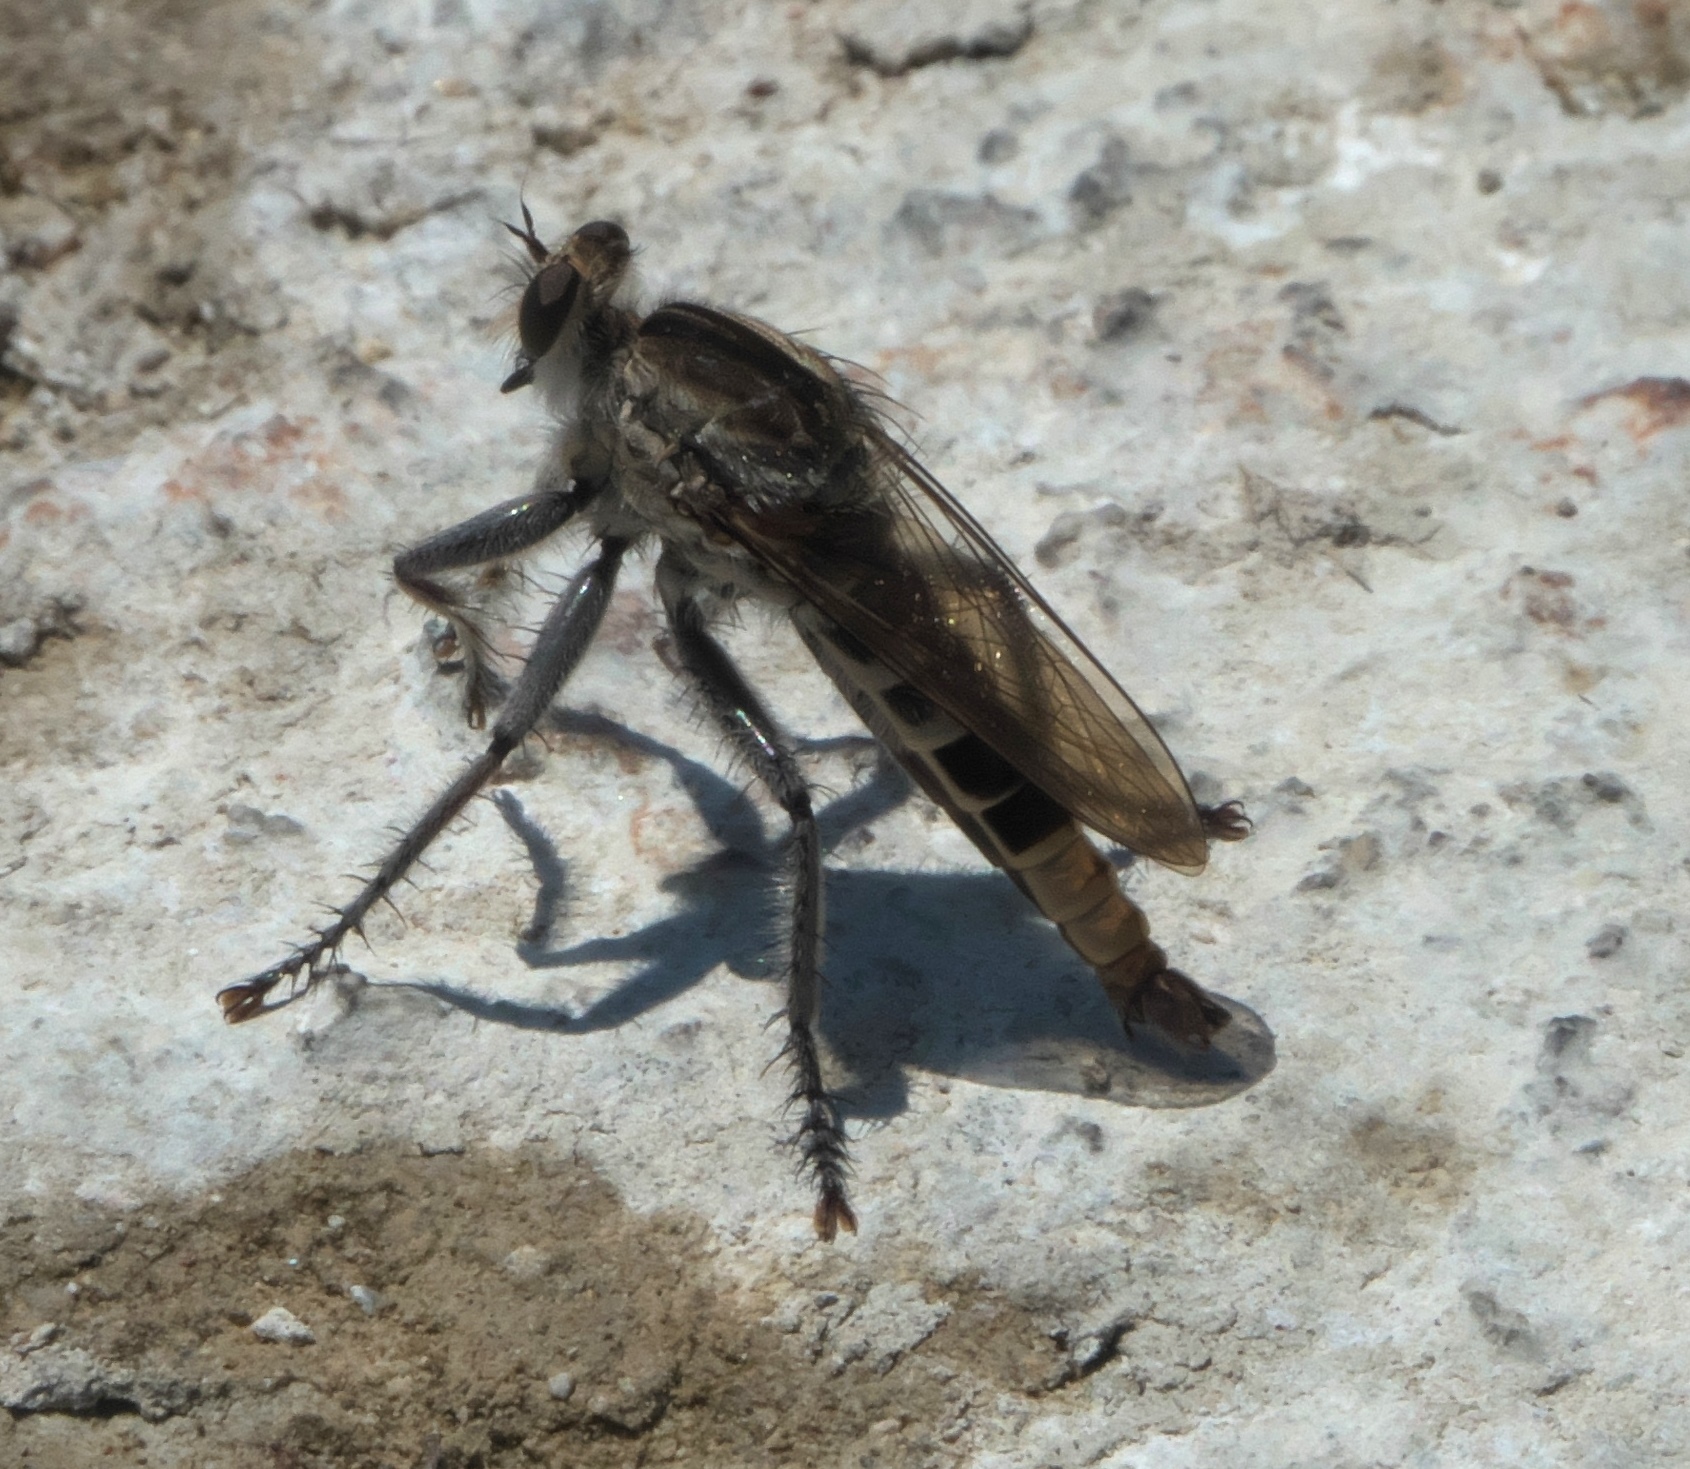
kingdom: Animalia
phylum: Arthropoda
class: Insecta
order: Diptera
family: Asilidae
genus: Triorla
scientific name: Triorla interrupta
